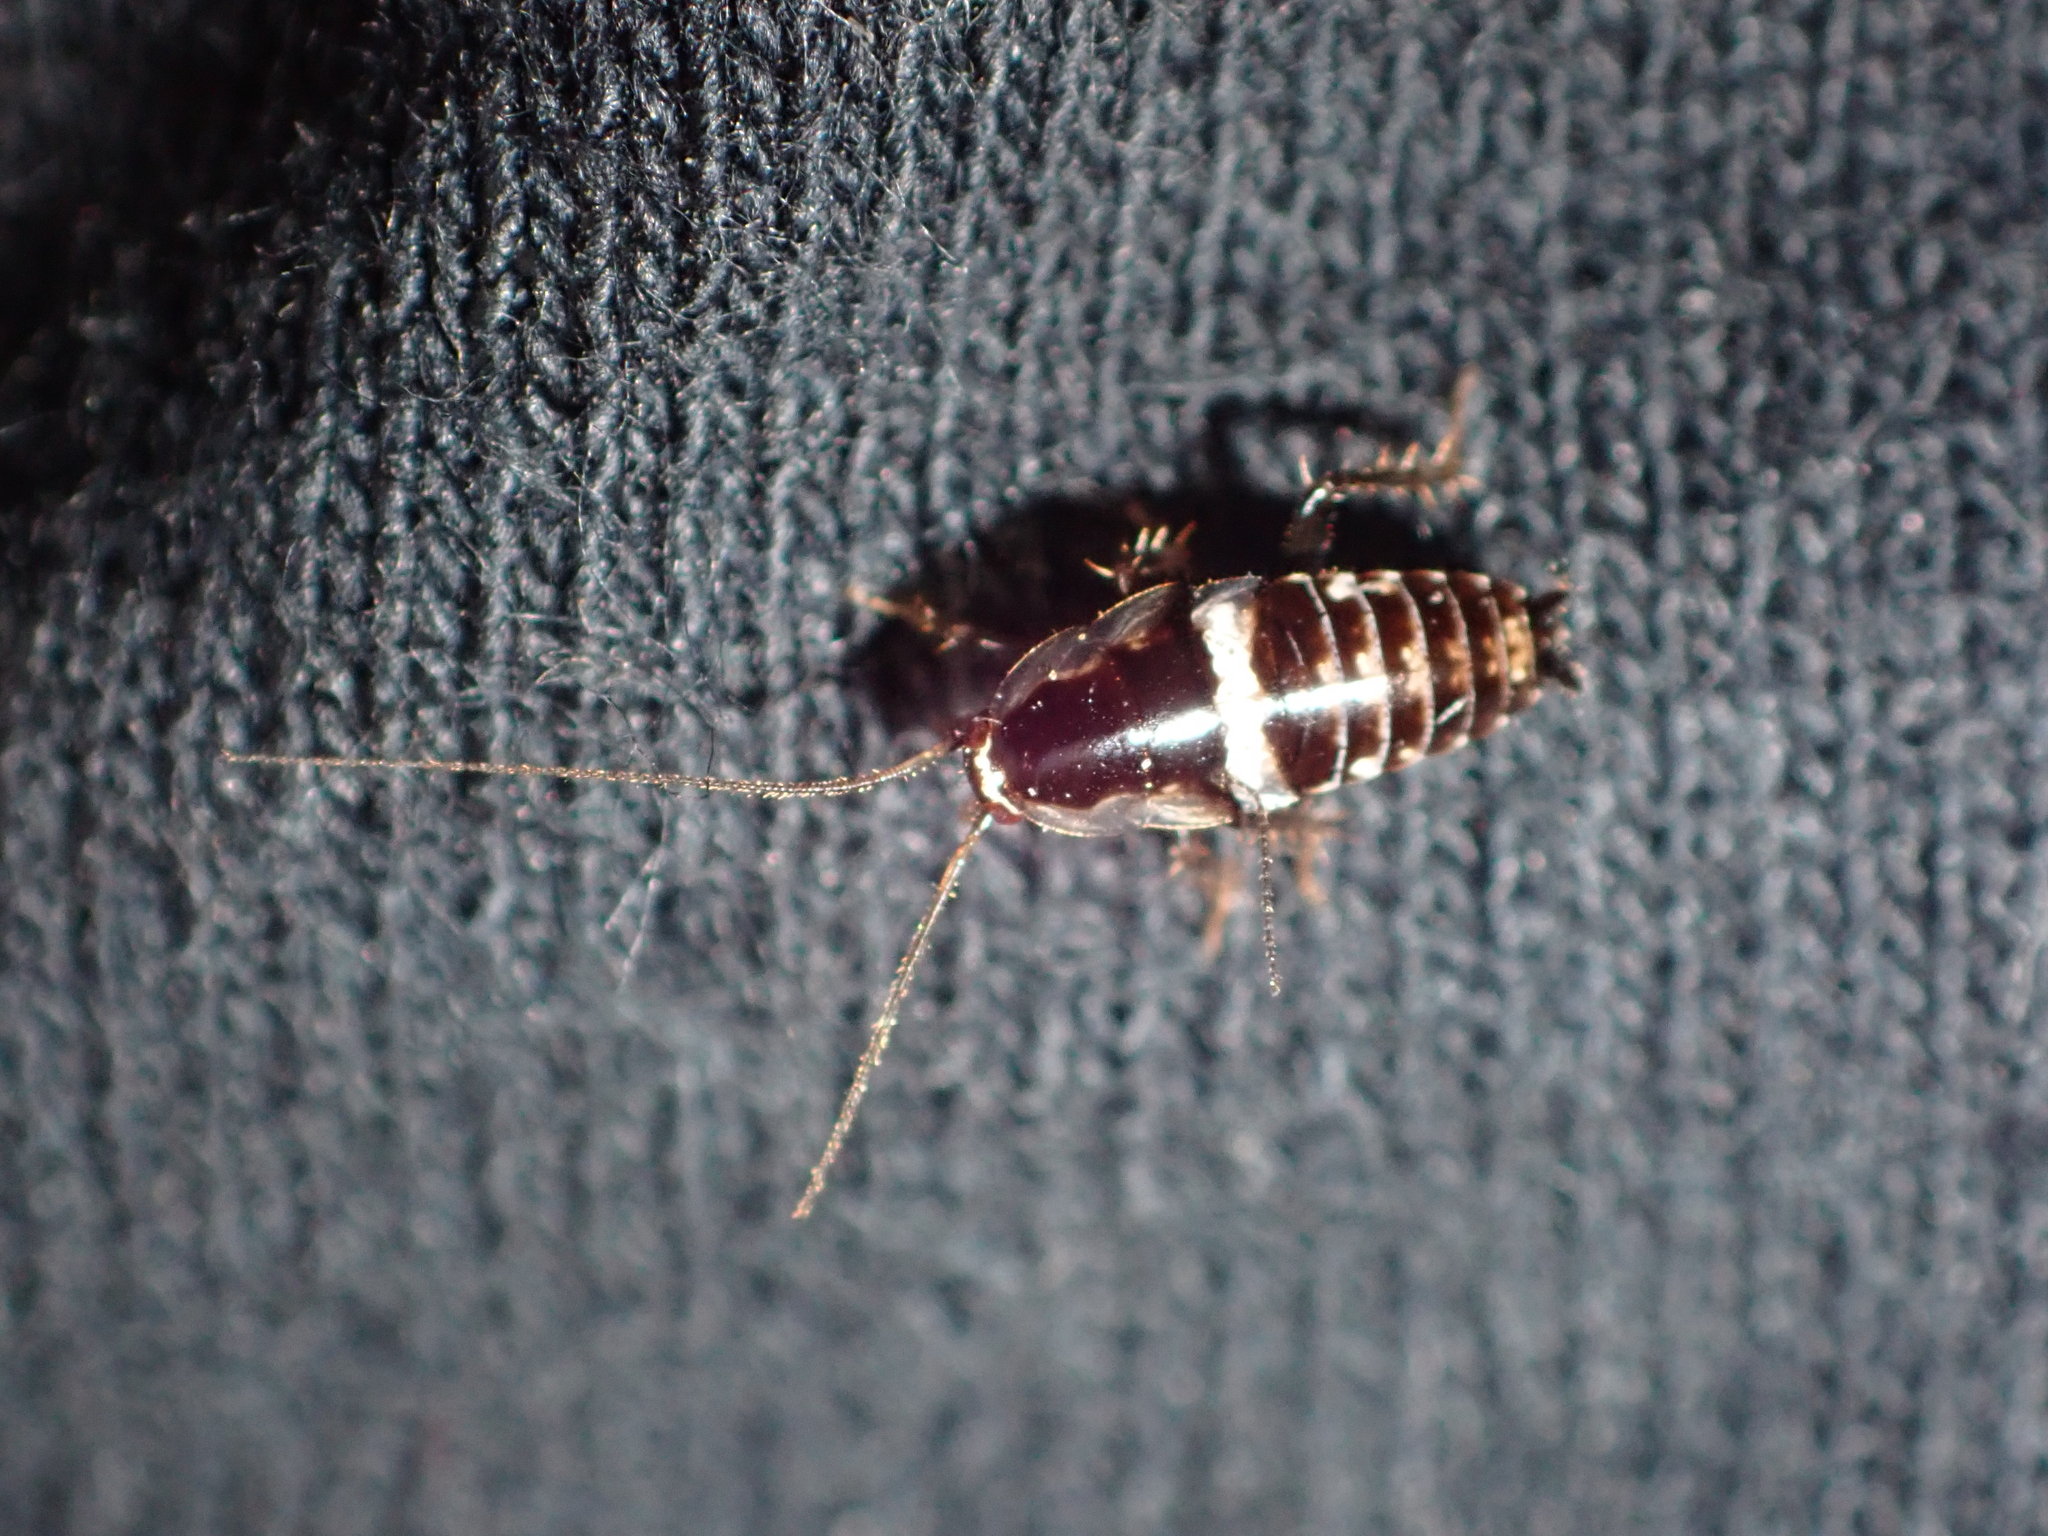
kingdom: Animalia
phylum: Arthropoda
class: Insecta
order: Blattodea
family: Ectobiidae
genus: Planuncus
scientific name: Planuncus vinzi
